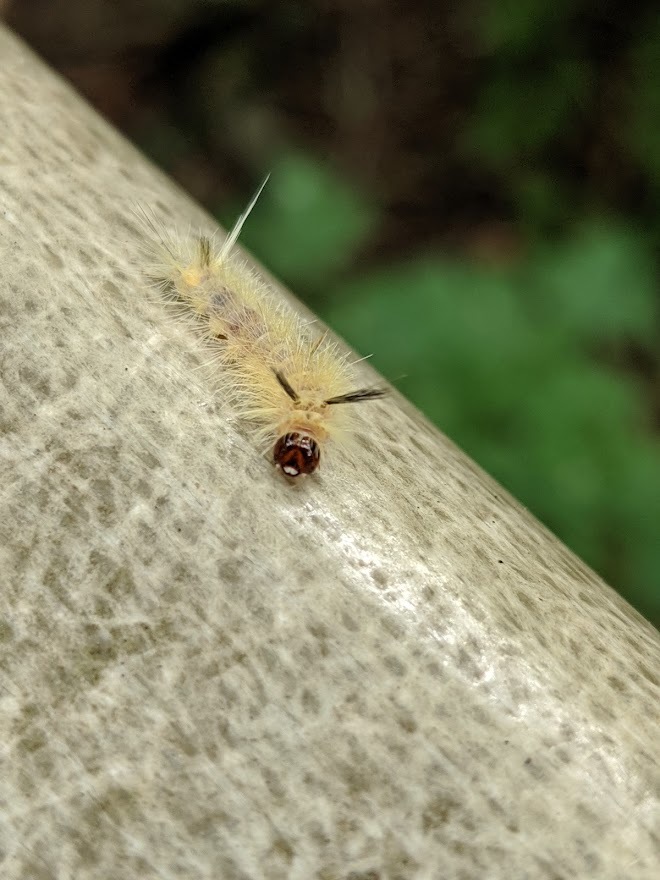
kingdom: Animalia
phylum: Arthropoda
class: Insecta
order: Lepidoptera
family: Erebidae
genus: Halysidota
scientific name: Halysidota tessellaris
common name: Banded tussock moth
